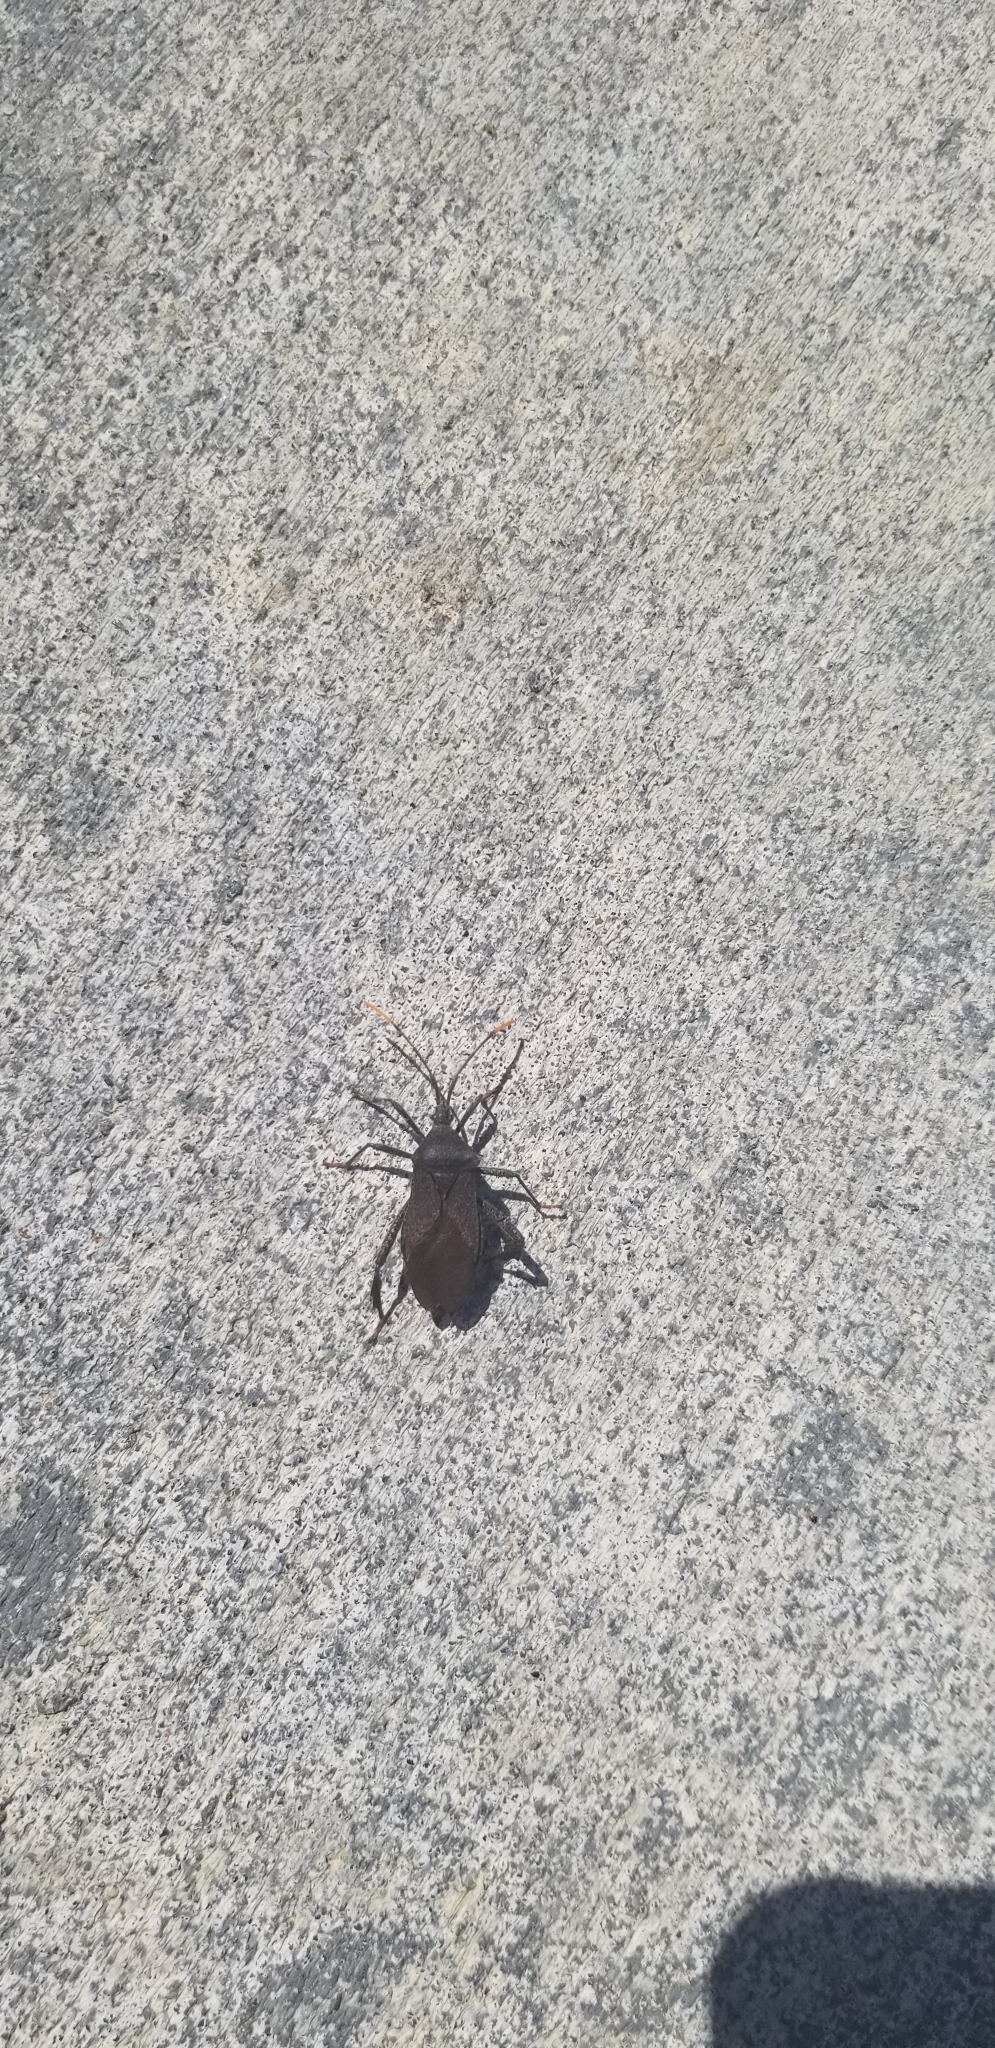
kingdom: Animalia
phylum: Arthropoda
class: Insecta
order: Hemiptera
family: Coreidae
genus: Acanthocephala
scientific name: Acanthocephala terminalis
